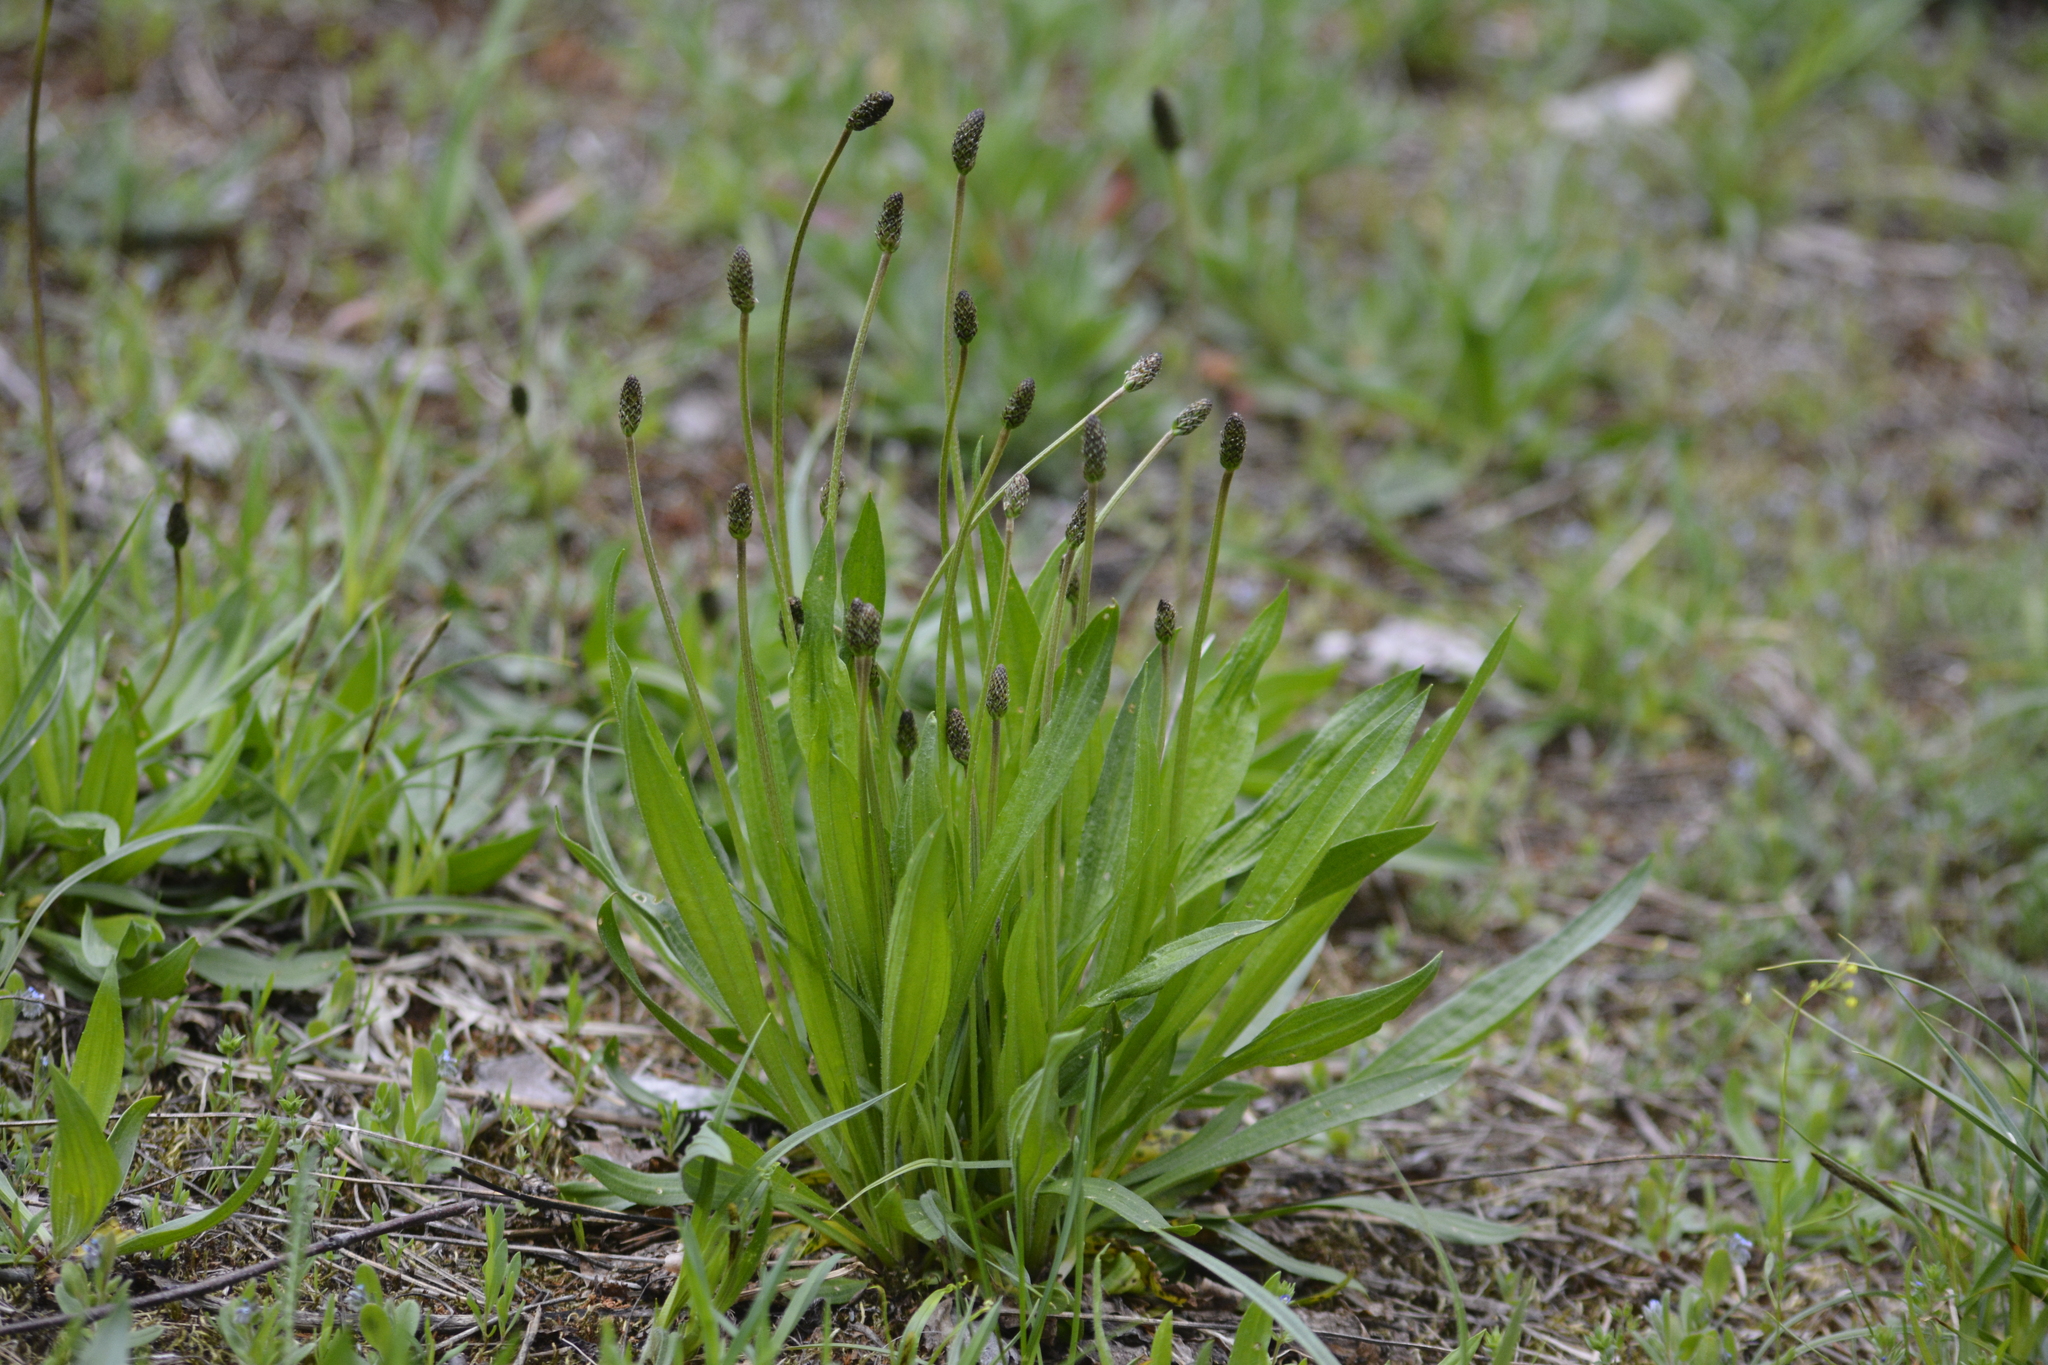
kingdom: Plantae
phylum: Tracheophyta
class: Magnoliopsida
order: Lamiales
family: Plantaginaceae
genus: Plantago
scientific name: Plantago lanceolata
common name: Ribwort plantain
